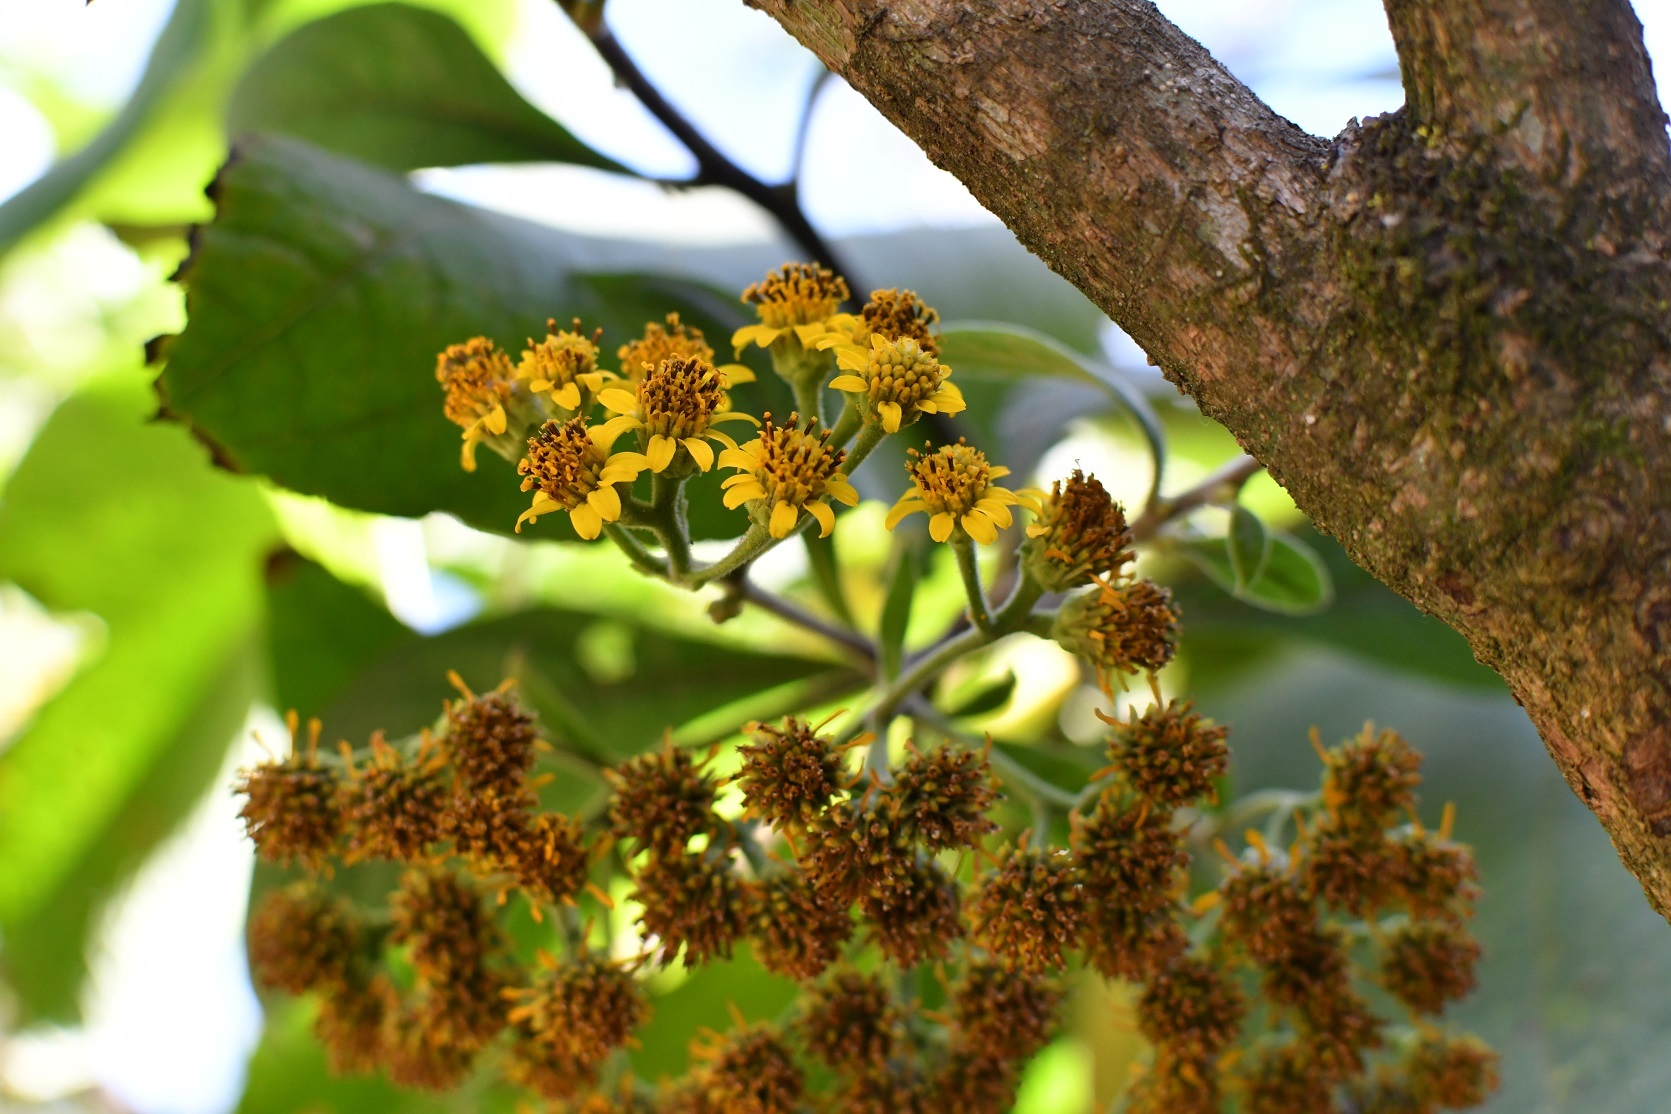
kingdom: Plantae
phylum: Tracheophyta
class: Magnoliopsida
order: Asterales
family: Asteraceae
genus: Verbesina
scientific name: Verbesina pleistocephala
